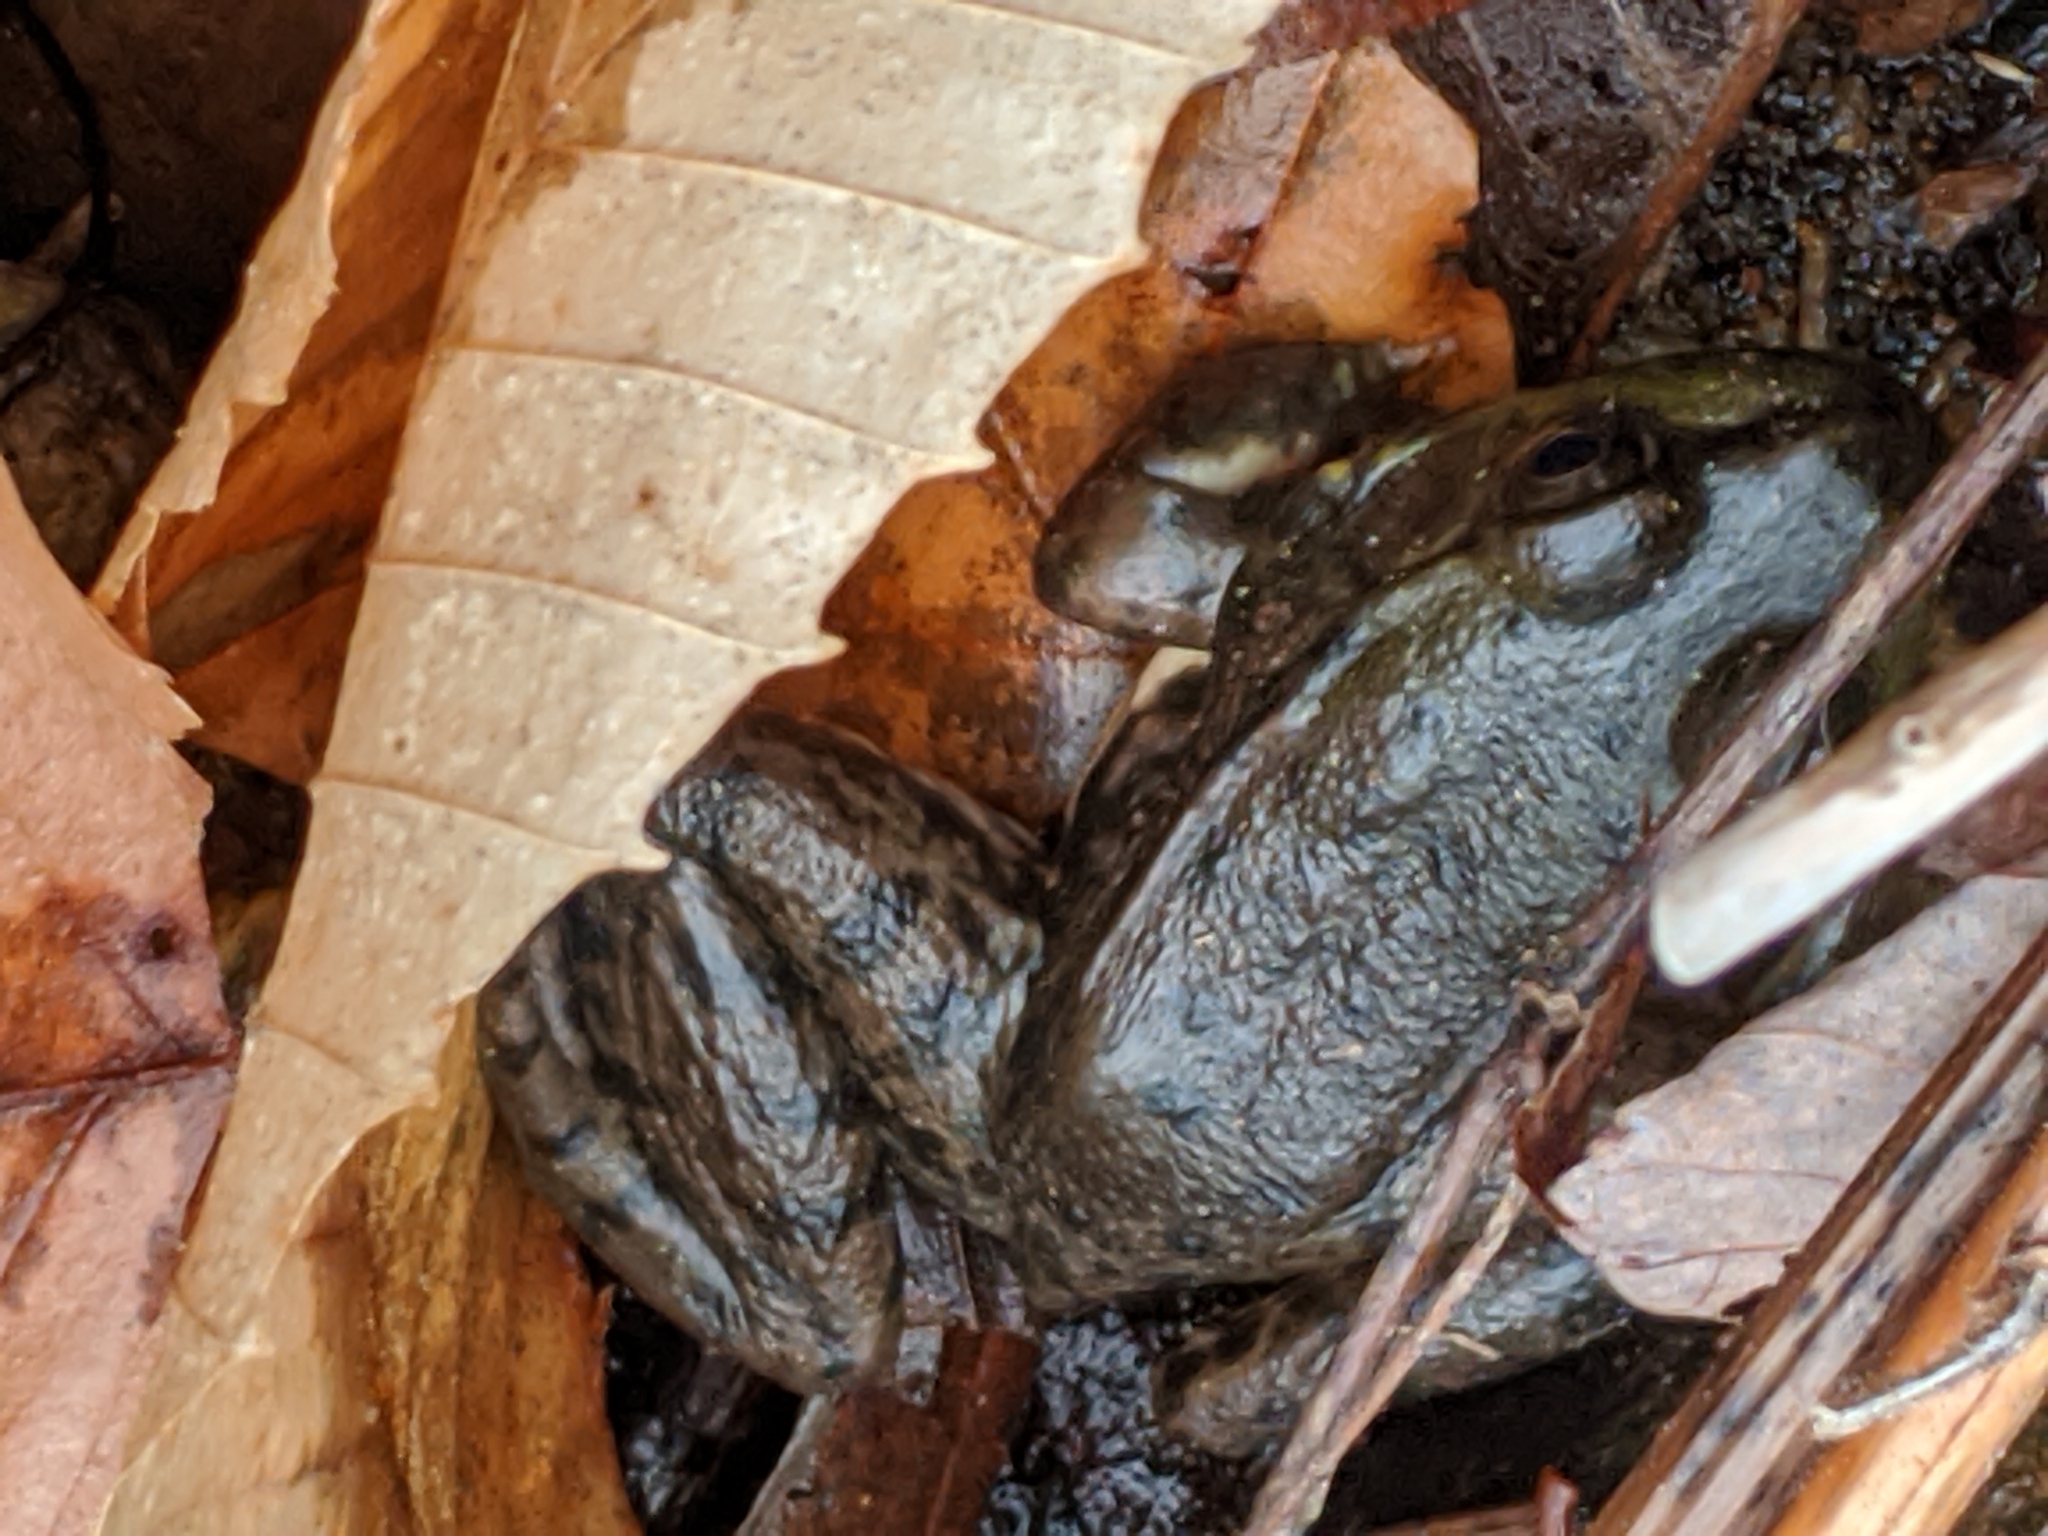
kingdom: Animalia
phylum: Chordata
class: Amphibia
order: Anura
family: Ranidae
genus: Lithobates
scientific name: Lithobates clamitans
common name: Green frog
